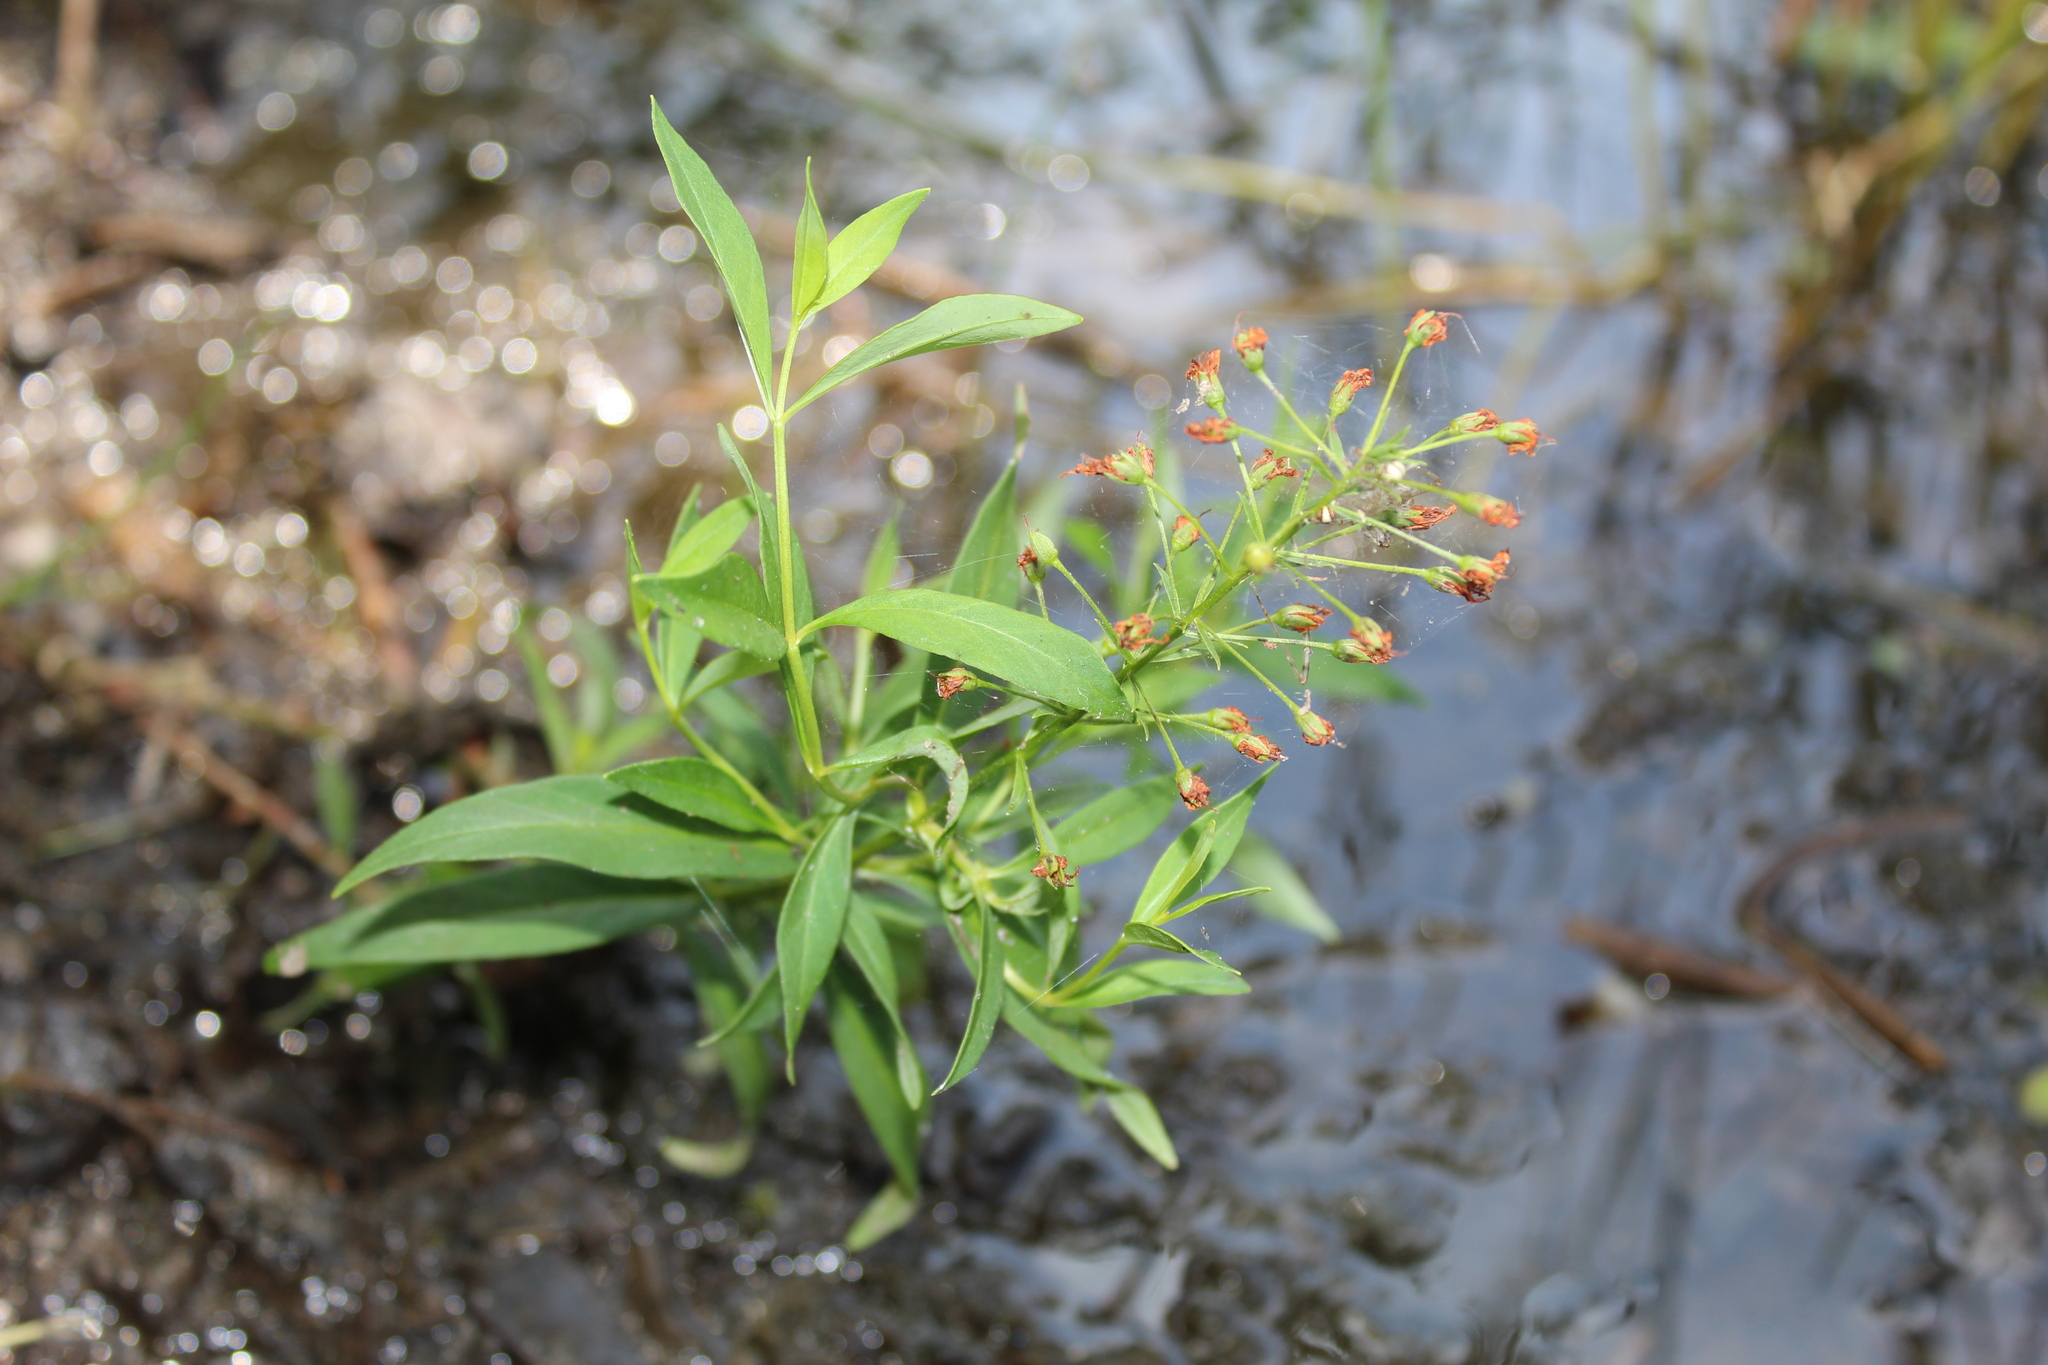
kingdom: Plantae
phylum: Tracheophyta
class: Magnoliopsida
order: Ericales
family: Primulaceae
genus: Lysimachia
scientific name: Lysimachia terrestris
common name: Lake loosestrife
